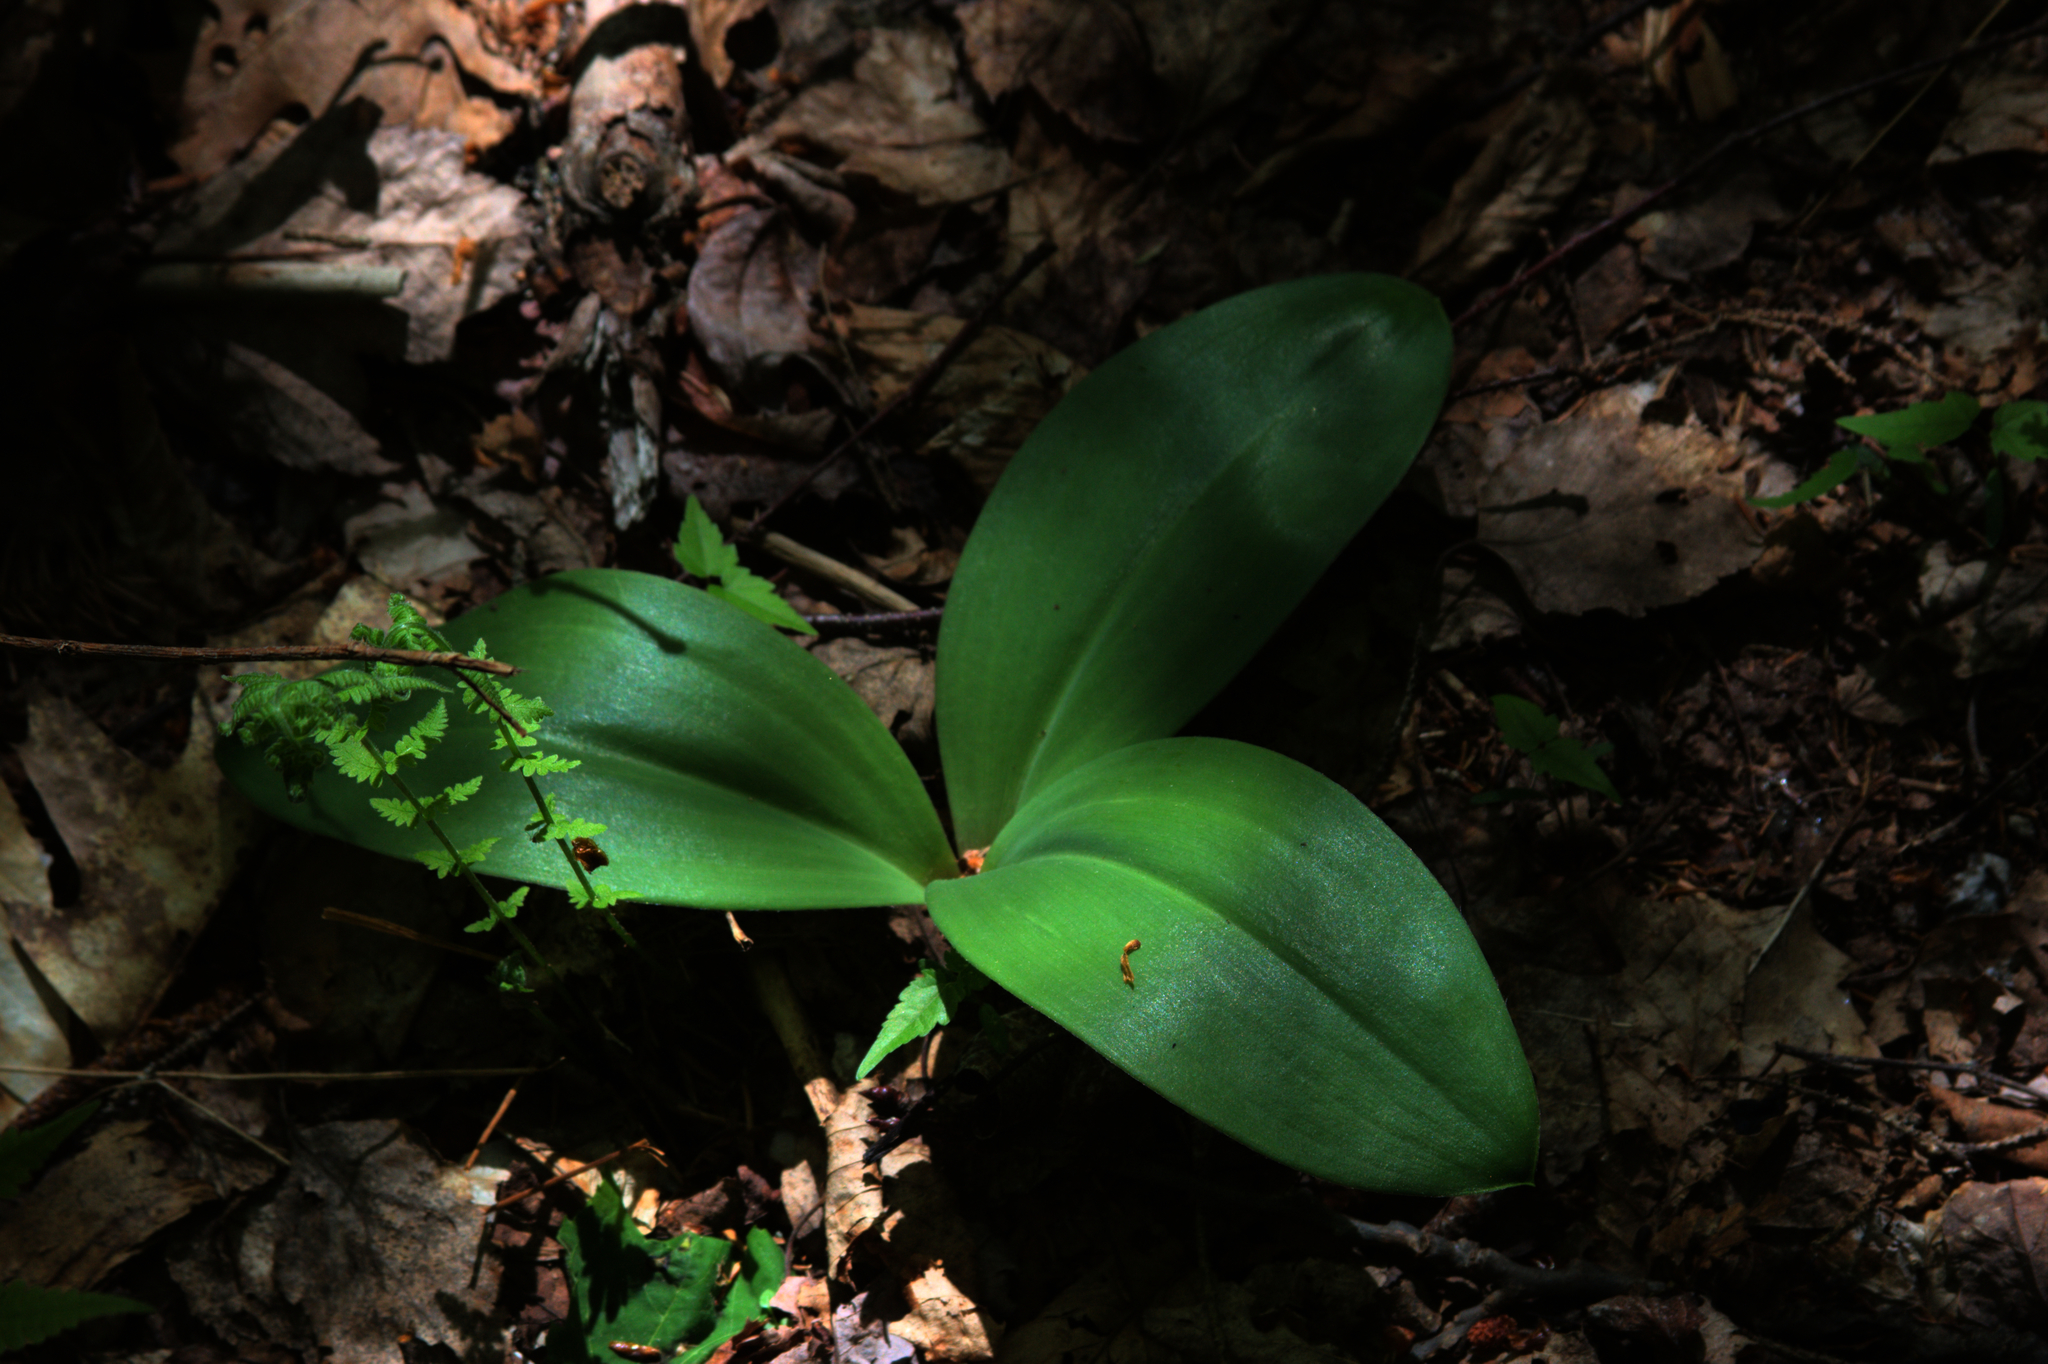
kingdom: Plantae
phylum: Tracheophyta
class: Liliopsida
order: Liliales
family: Liliaceae
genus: Clintonia
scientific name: Clintonia borealis
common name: Yellow clintonia
